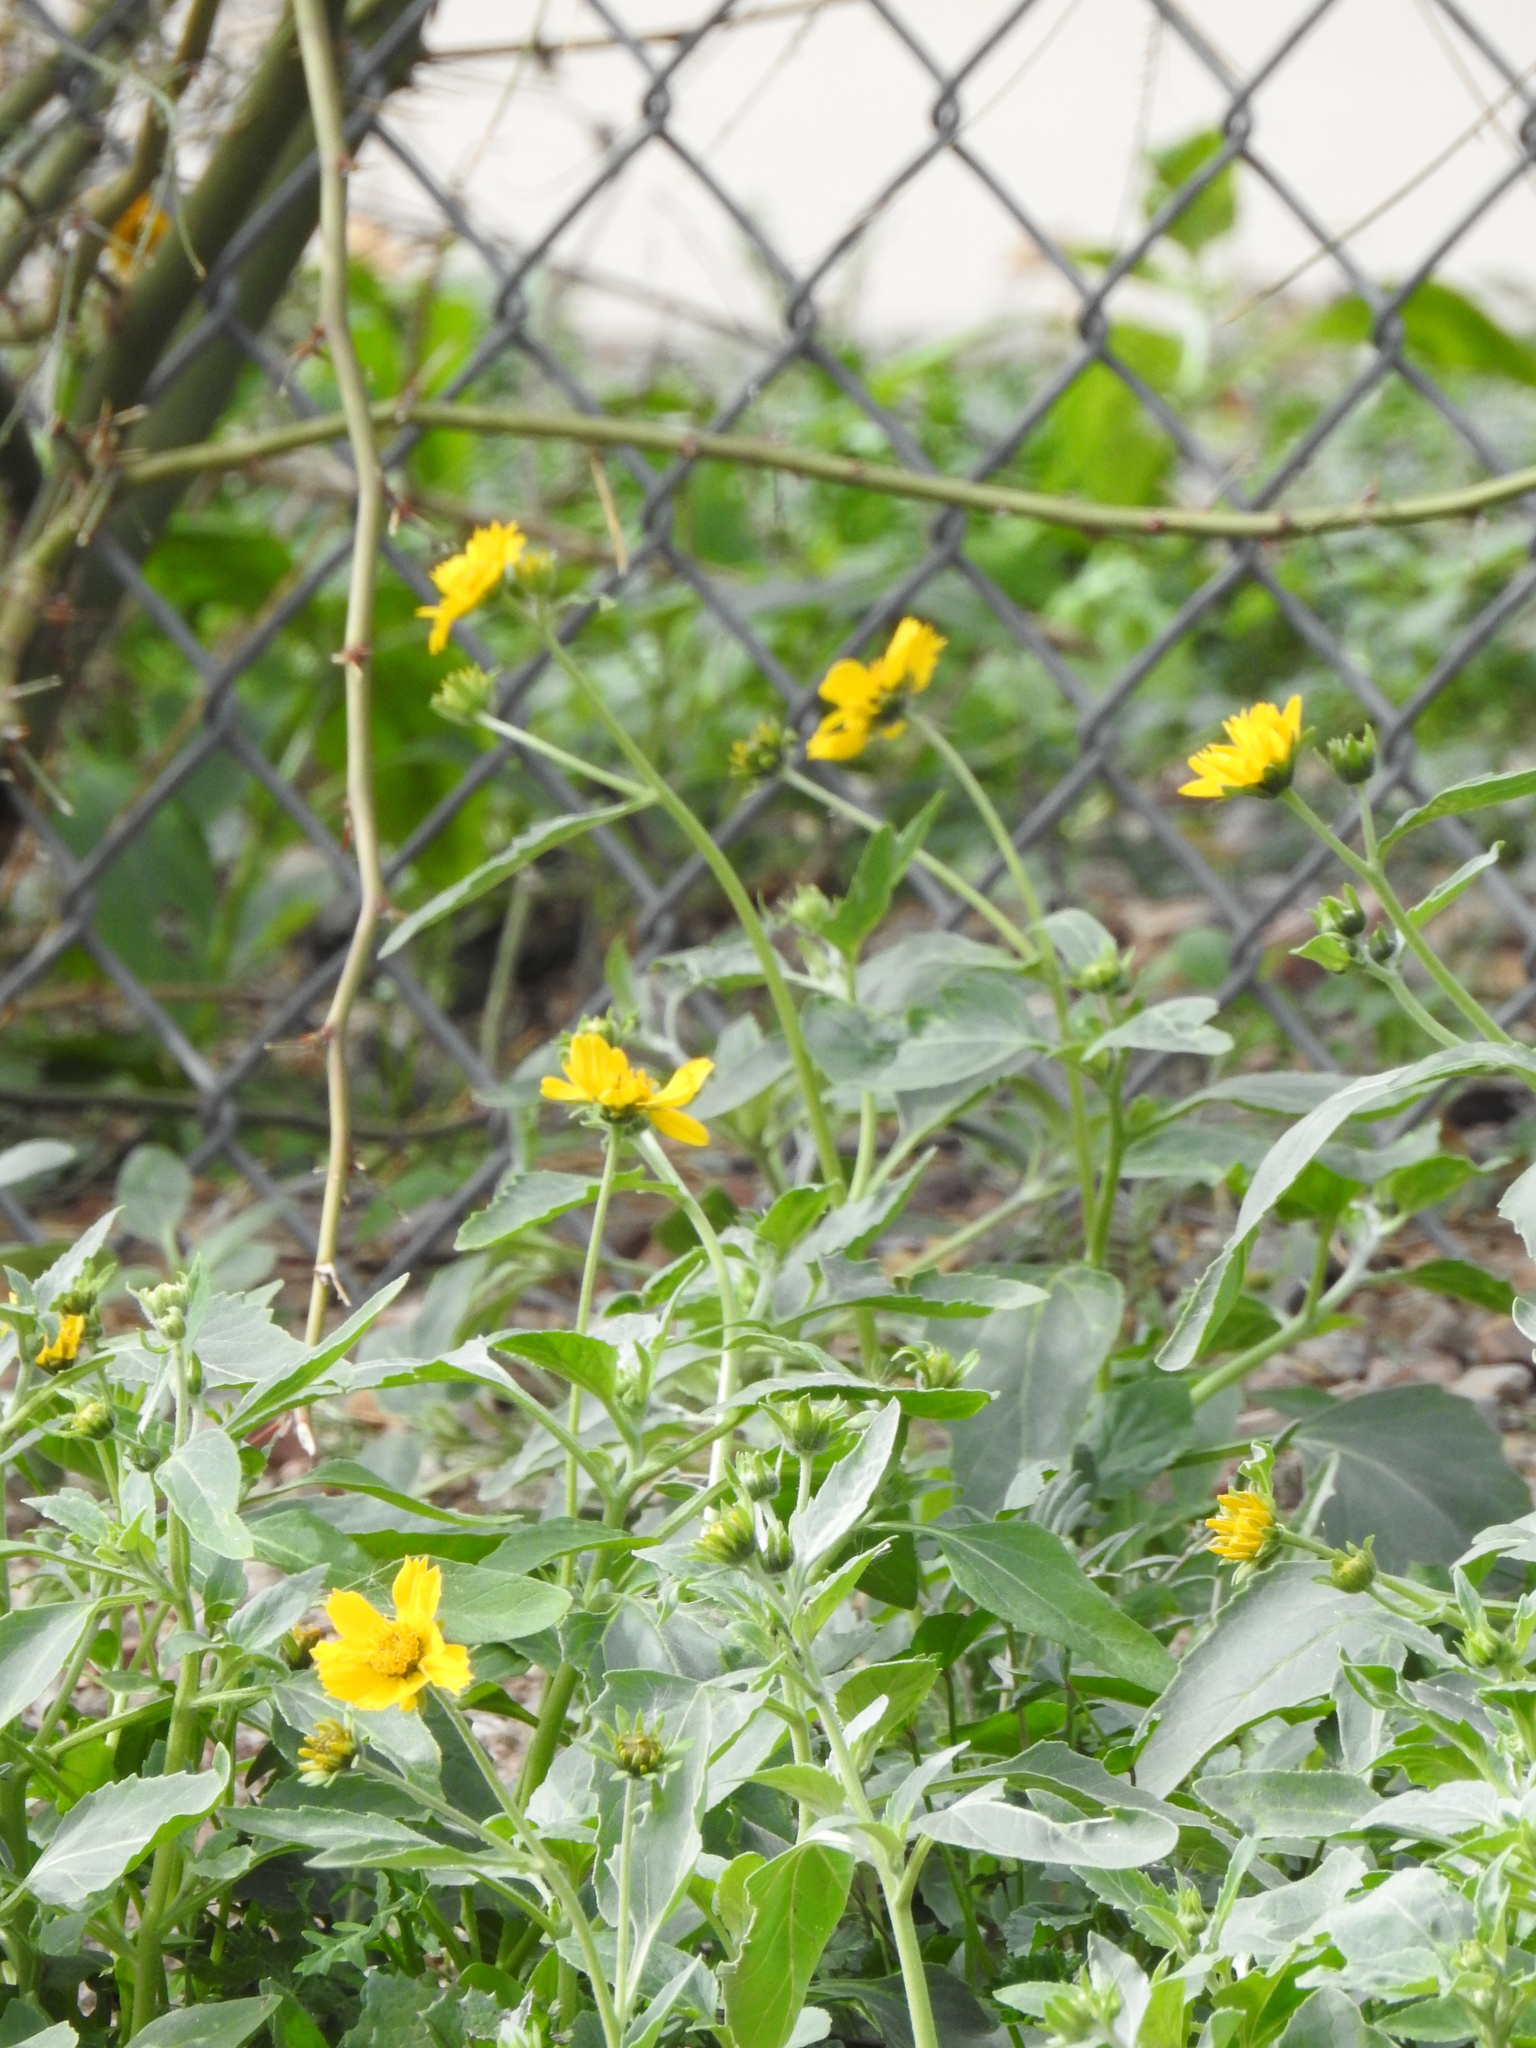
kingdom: Plantae
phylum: Tracheophyta
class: Magnoliopsida
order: Asterales
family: Asteraceae
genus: Verbesina
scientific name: Verbesina encelioides
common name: Golden crownbeard
